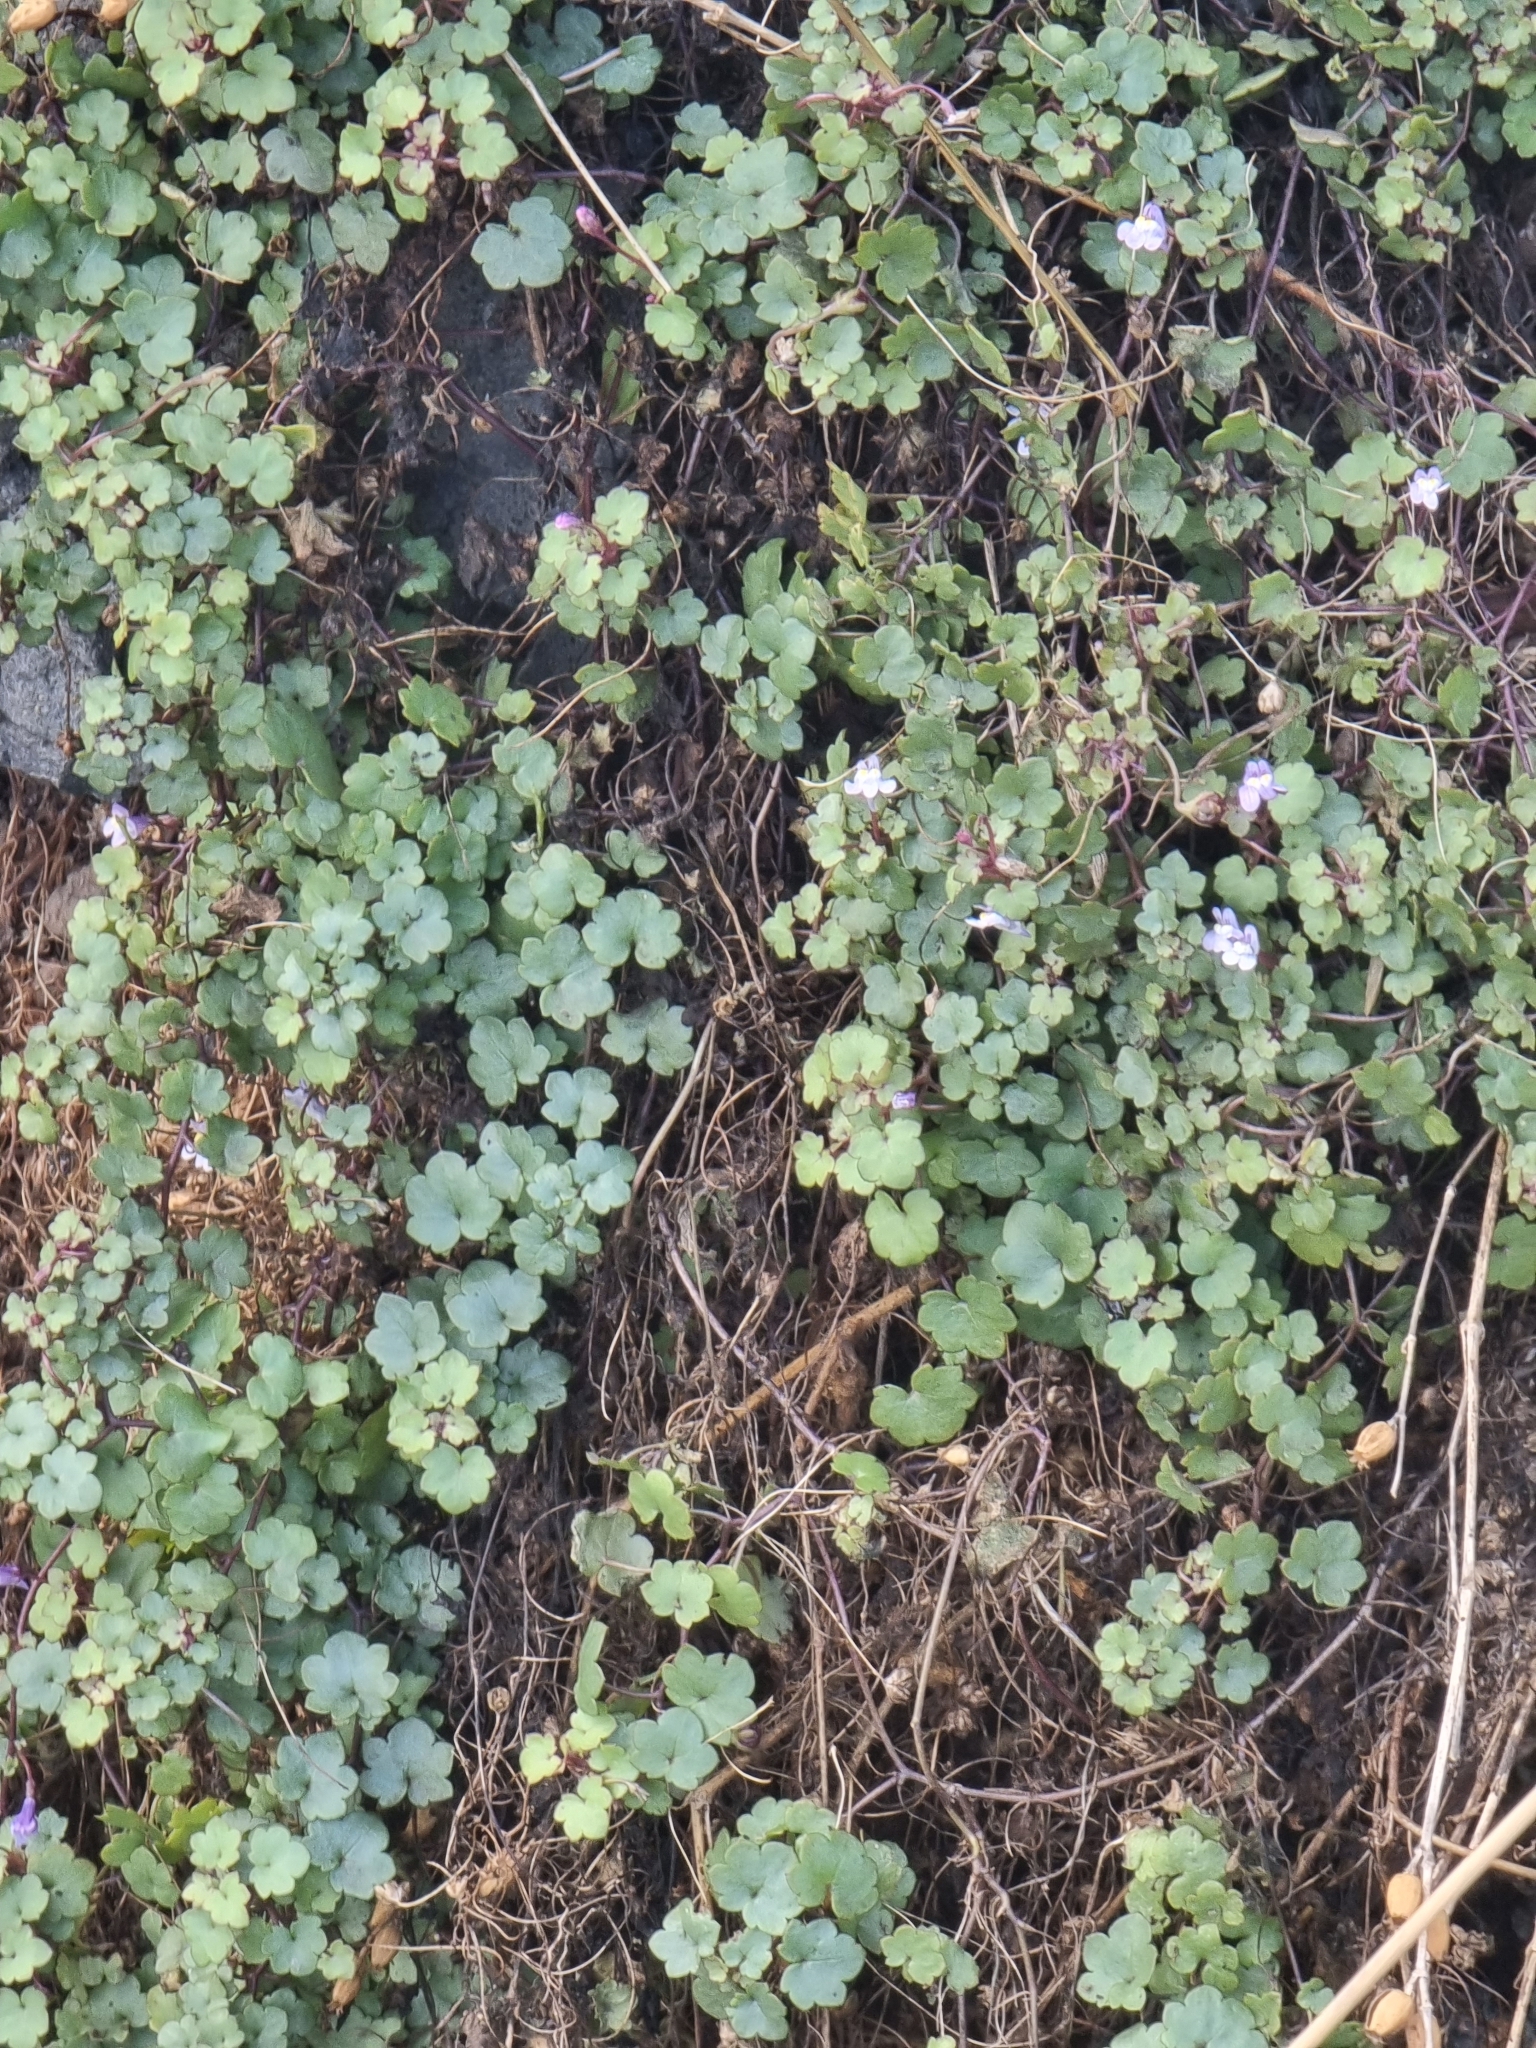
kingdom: Plantae
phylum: Tracheophyta
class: Magnoliopsida
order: Lamiales
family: Plantaginaceae
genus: Cymbalaria
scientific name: Cymbalaria muralis
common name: Ivy-leaved toadflax
